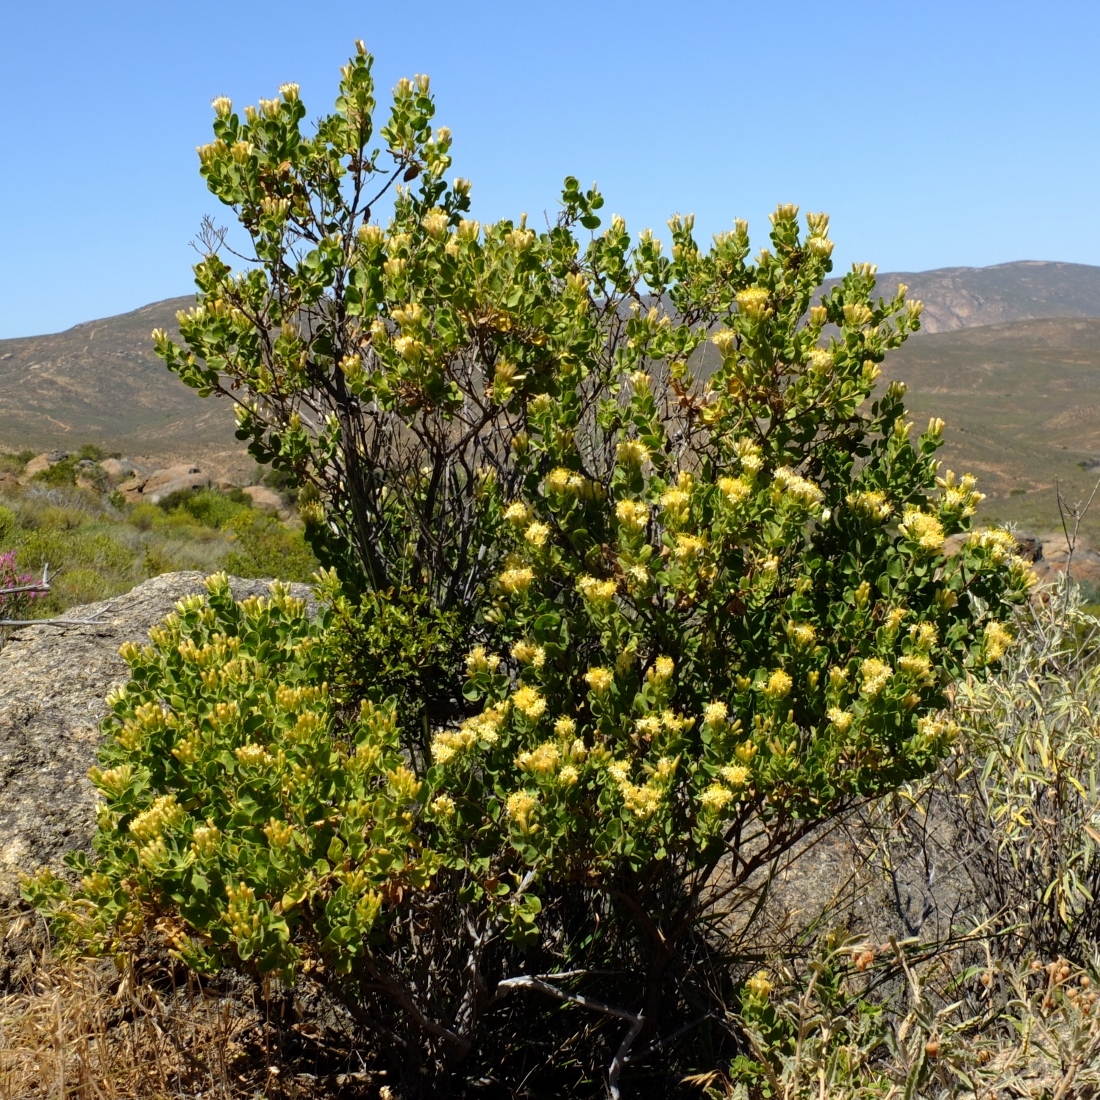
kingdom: Plantae
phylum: Tracheophyta
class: Magnoliopsida
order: Asterales
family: Asteraceae
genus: Pteronia
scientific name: Pteronia divaricata
